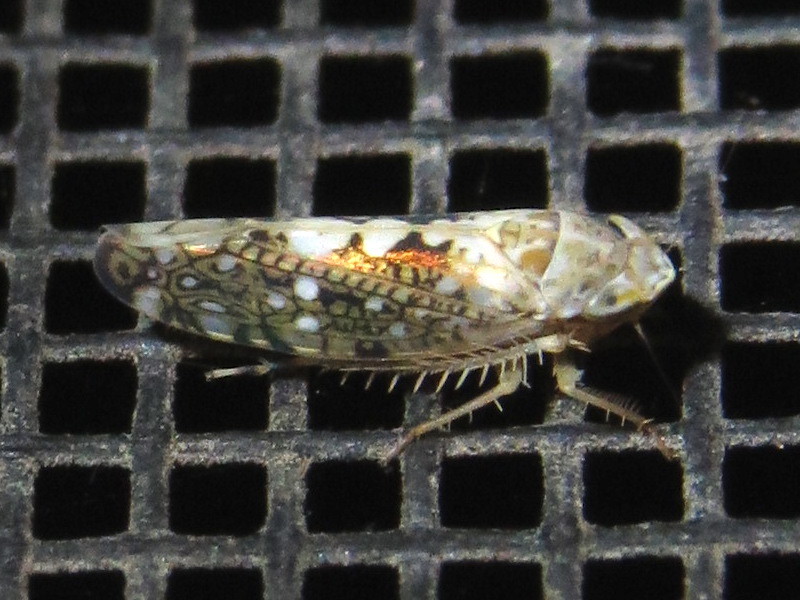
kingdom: Animalia
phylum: Arthropoda
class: Insecta
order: Hemiptera
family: Cicadellidae
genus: Prescottia
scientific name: Prescottia lobata
